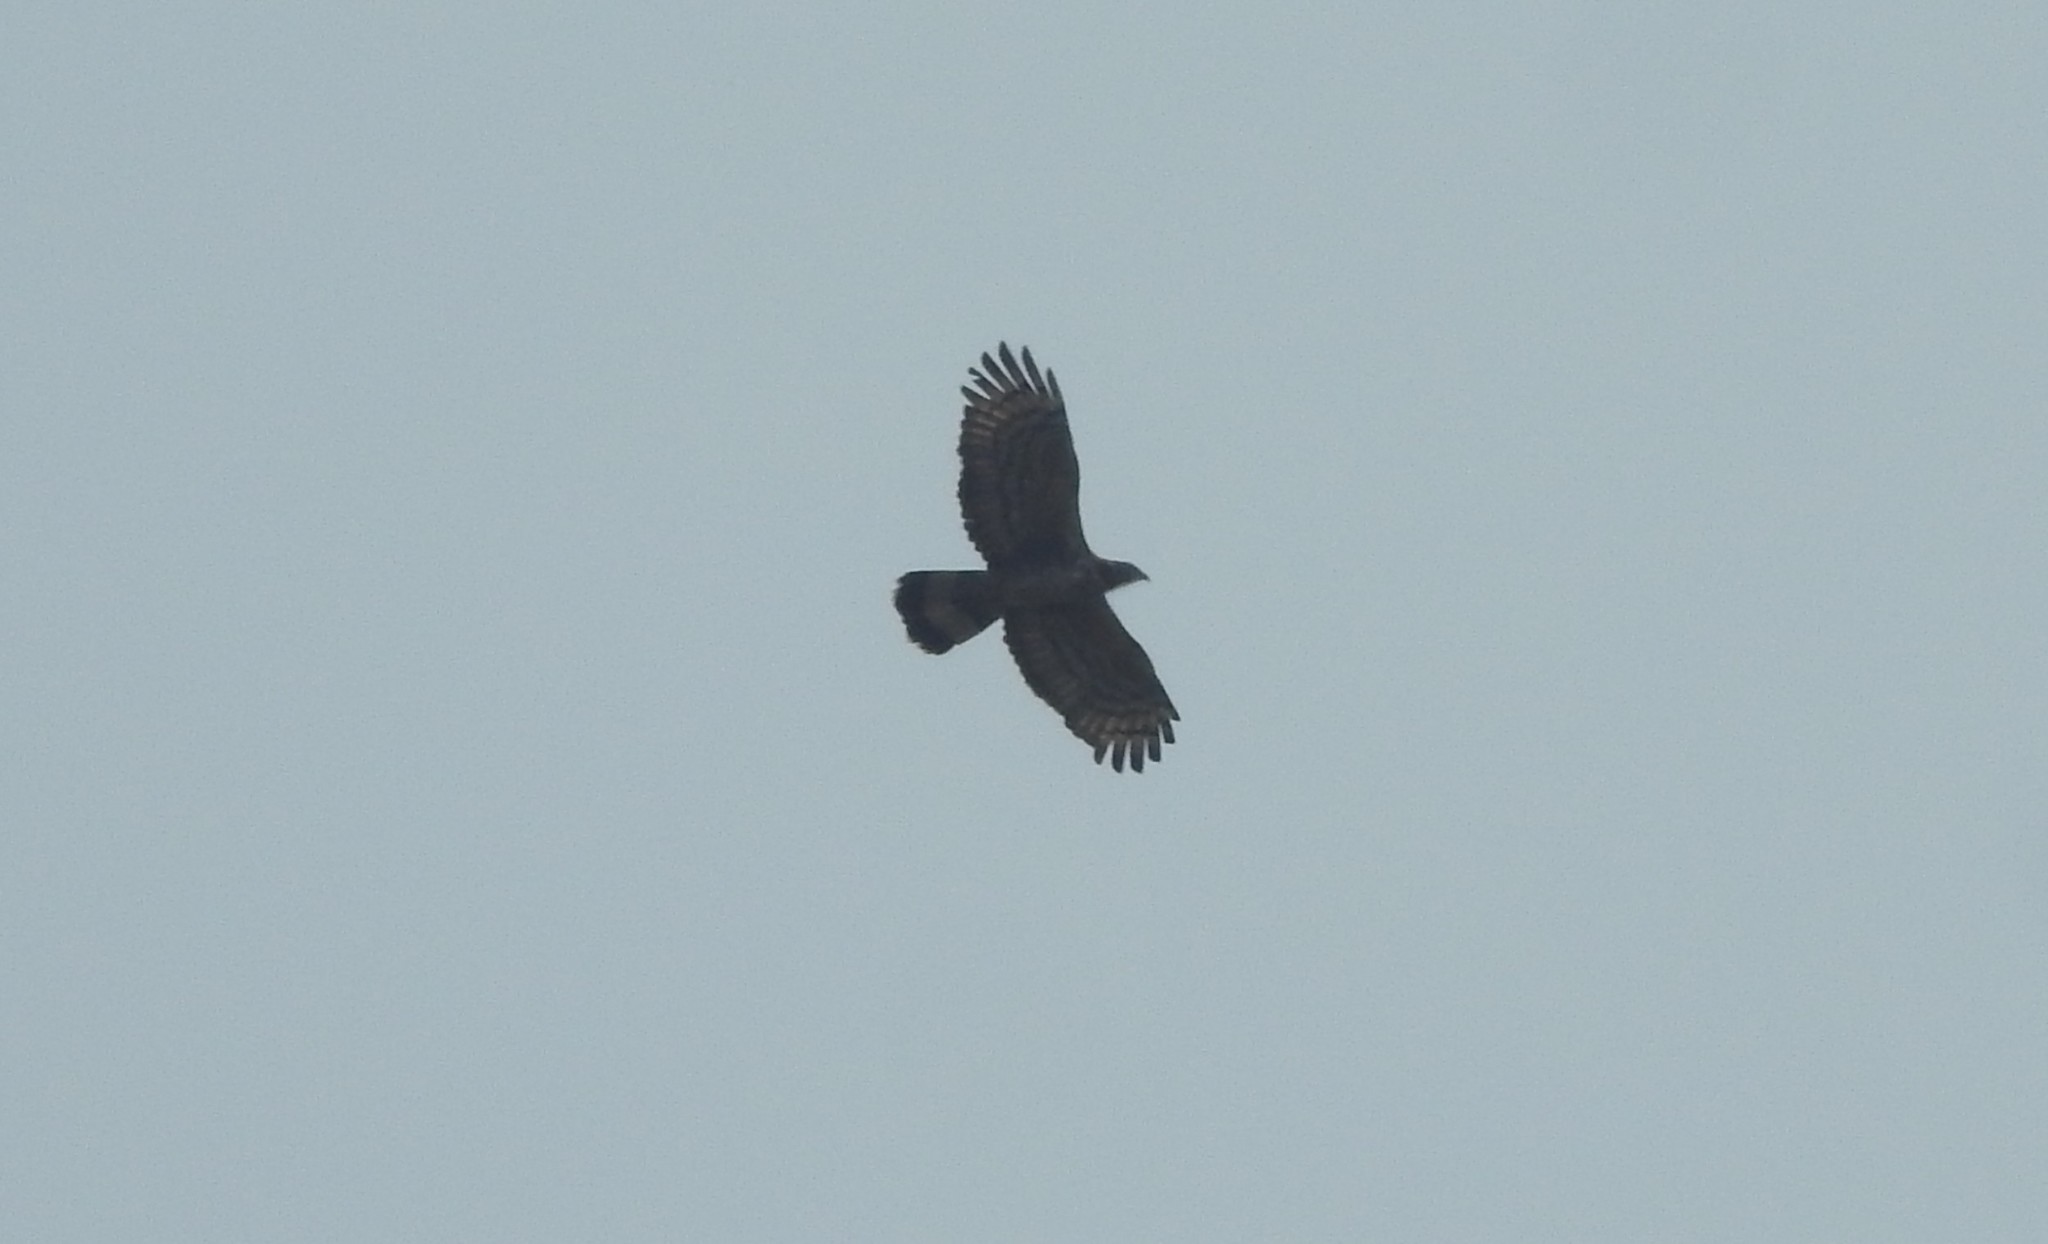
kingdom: Animalia
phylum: Chordata
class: Aves
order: Accipitriformes
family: Accipitridae
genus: Pernis
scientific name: Pernis ptilorhynchus
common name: Crested honey buzzard
